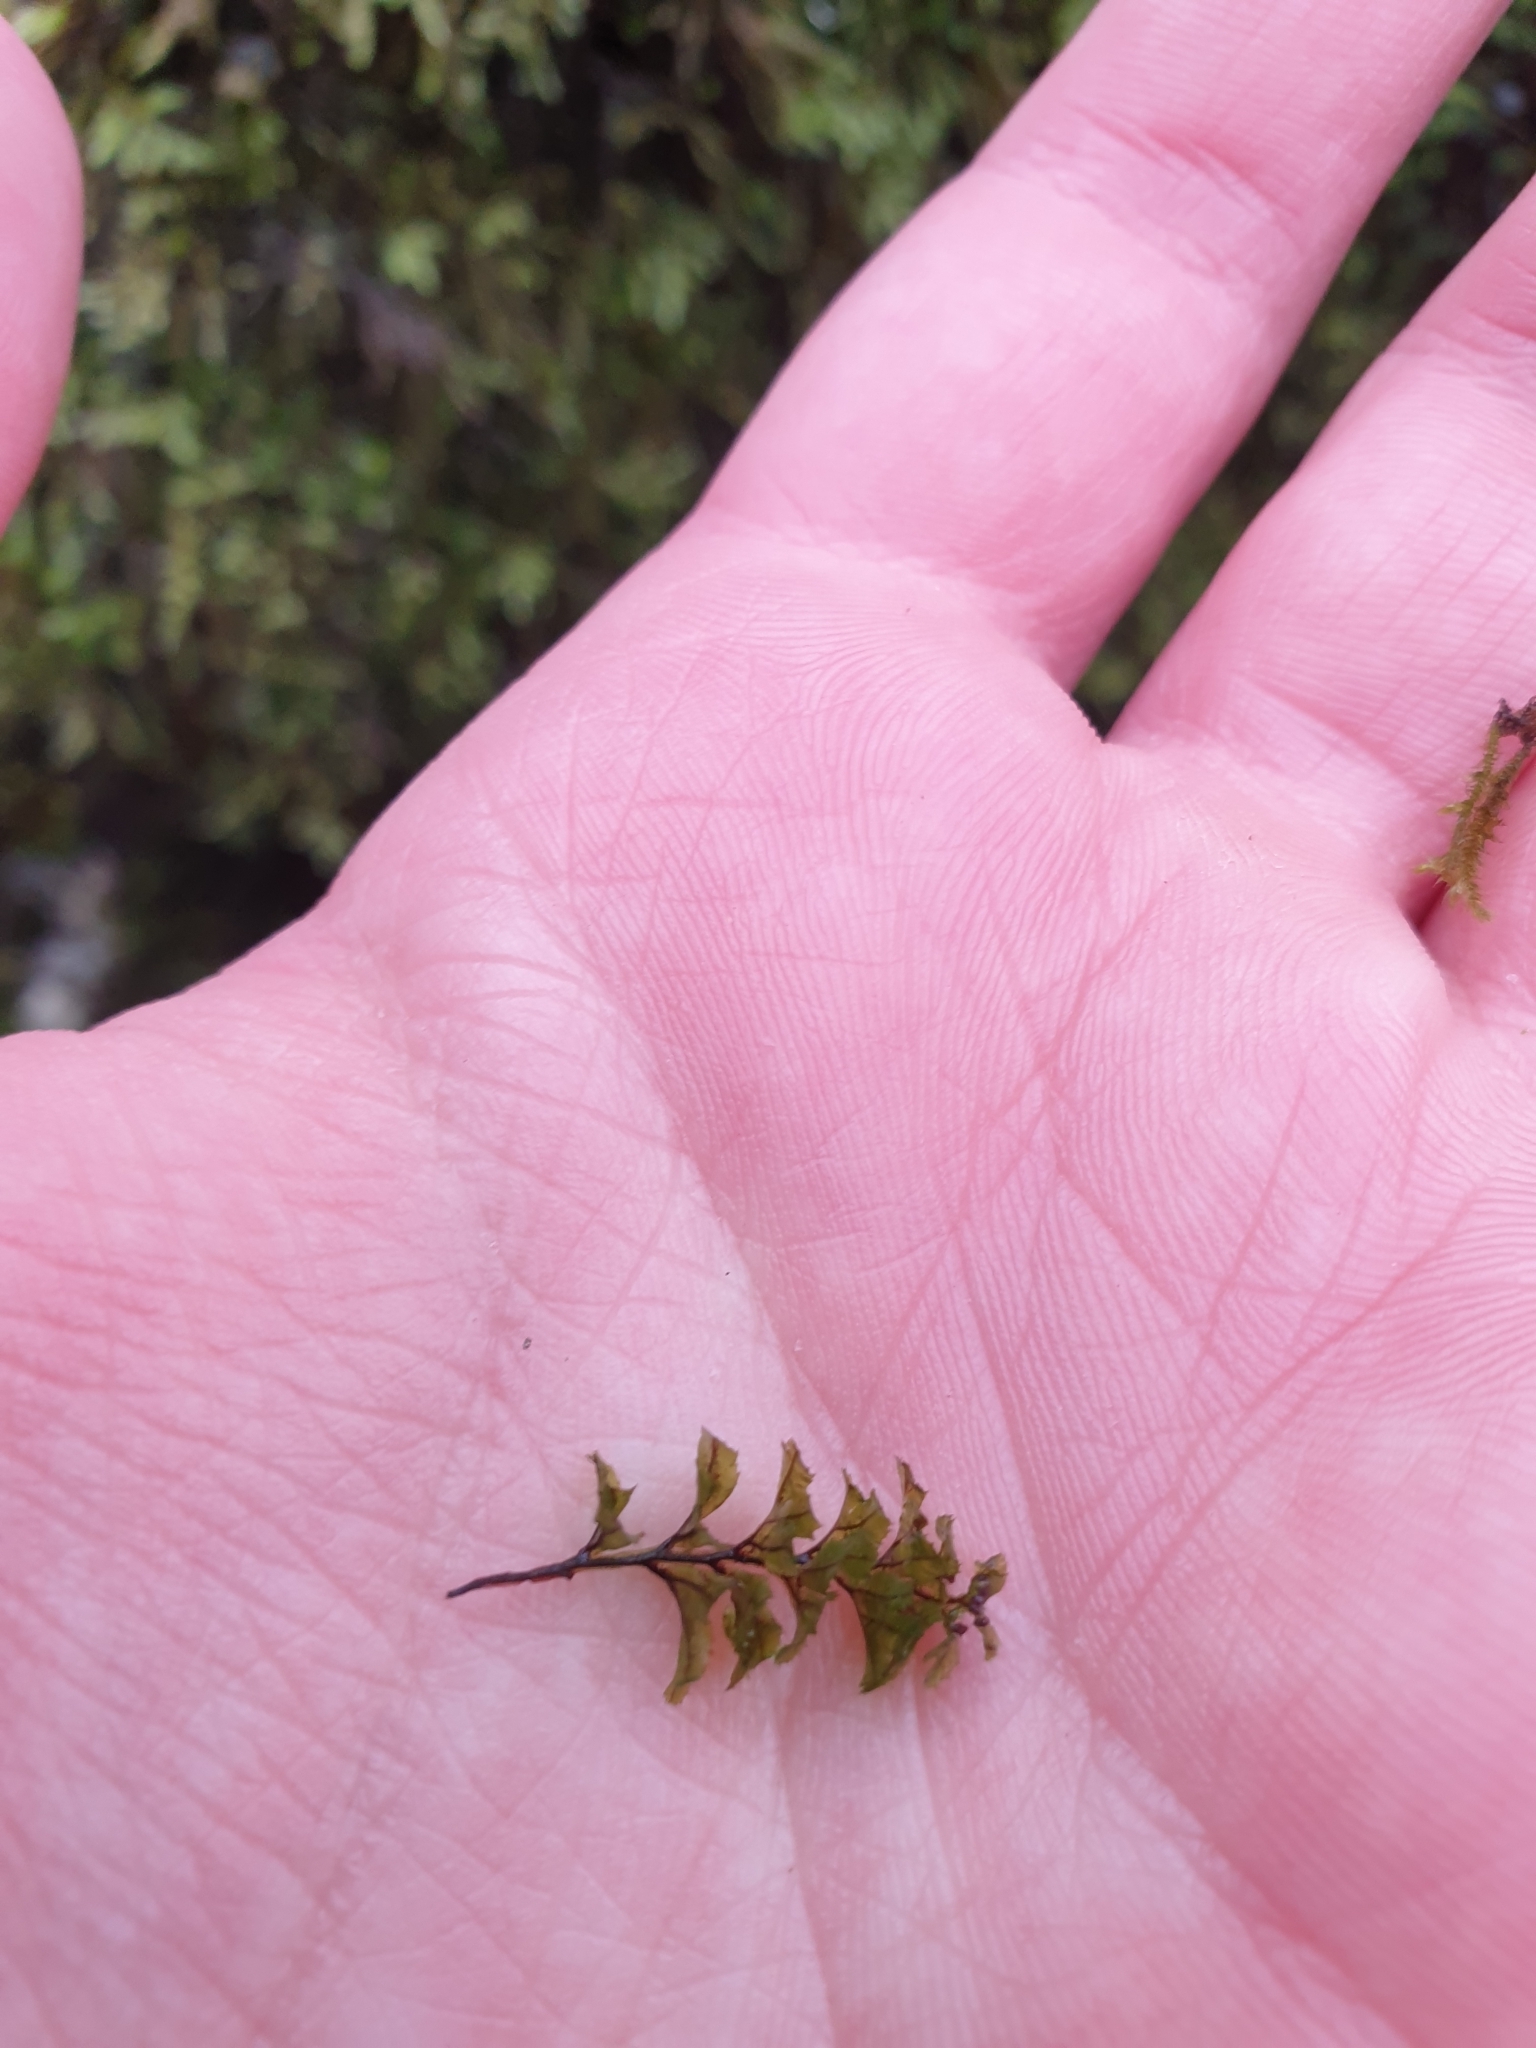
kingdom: Plantae
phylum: Tracheophyta
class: Polypodiopsida
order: Hymenophyllales
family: Hymenophyllaceae
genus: Hymenophyllum
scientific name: Hymenophyllum wilsonii
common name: Wilson's filmy fern
